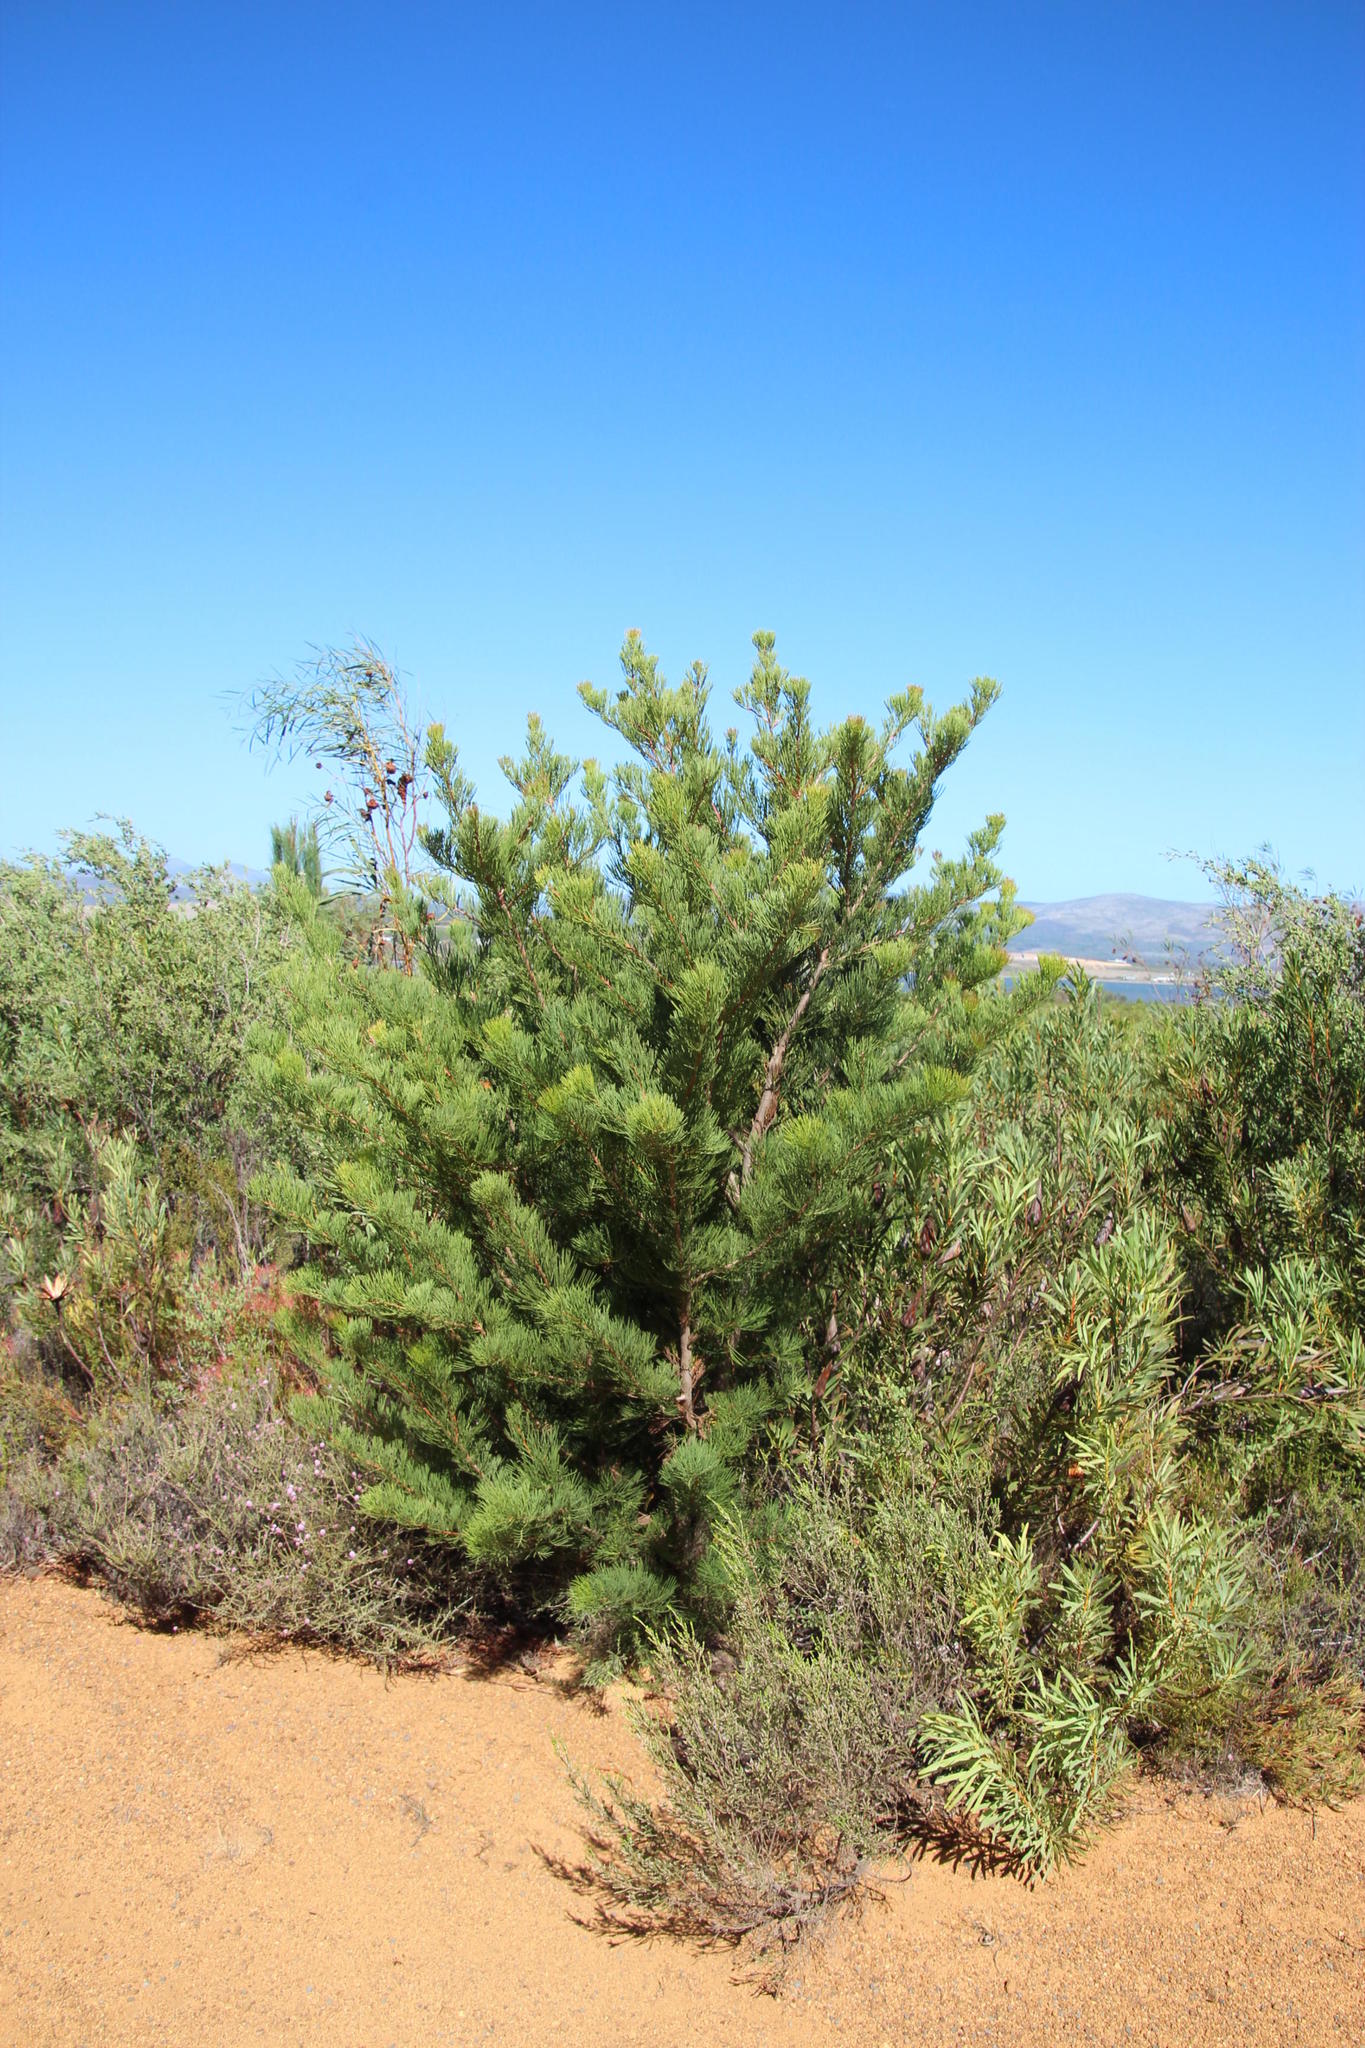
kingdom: Plantae
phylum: Tracheophyta
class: Magnoliopsida
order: Proteales
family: Proteaceae
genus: Hakea
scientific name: Hakea drupacea
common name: Sweet hakea
